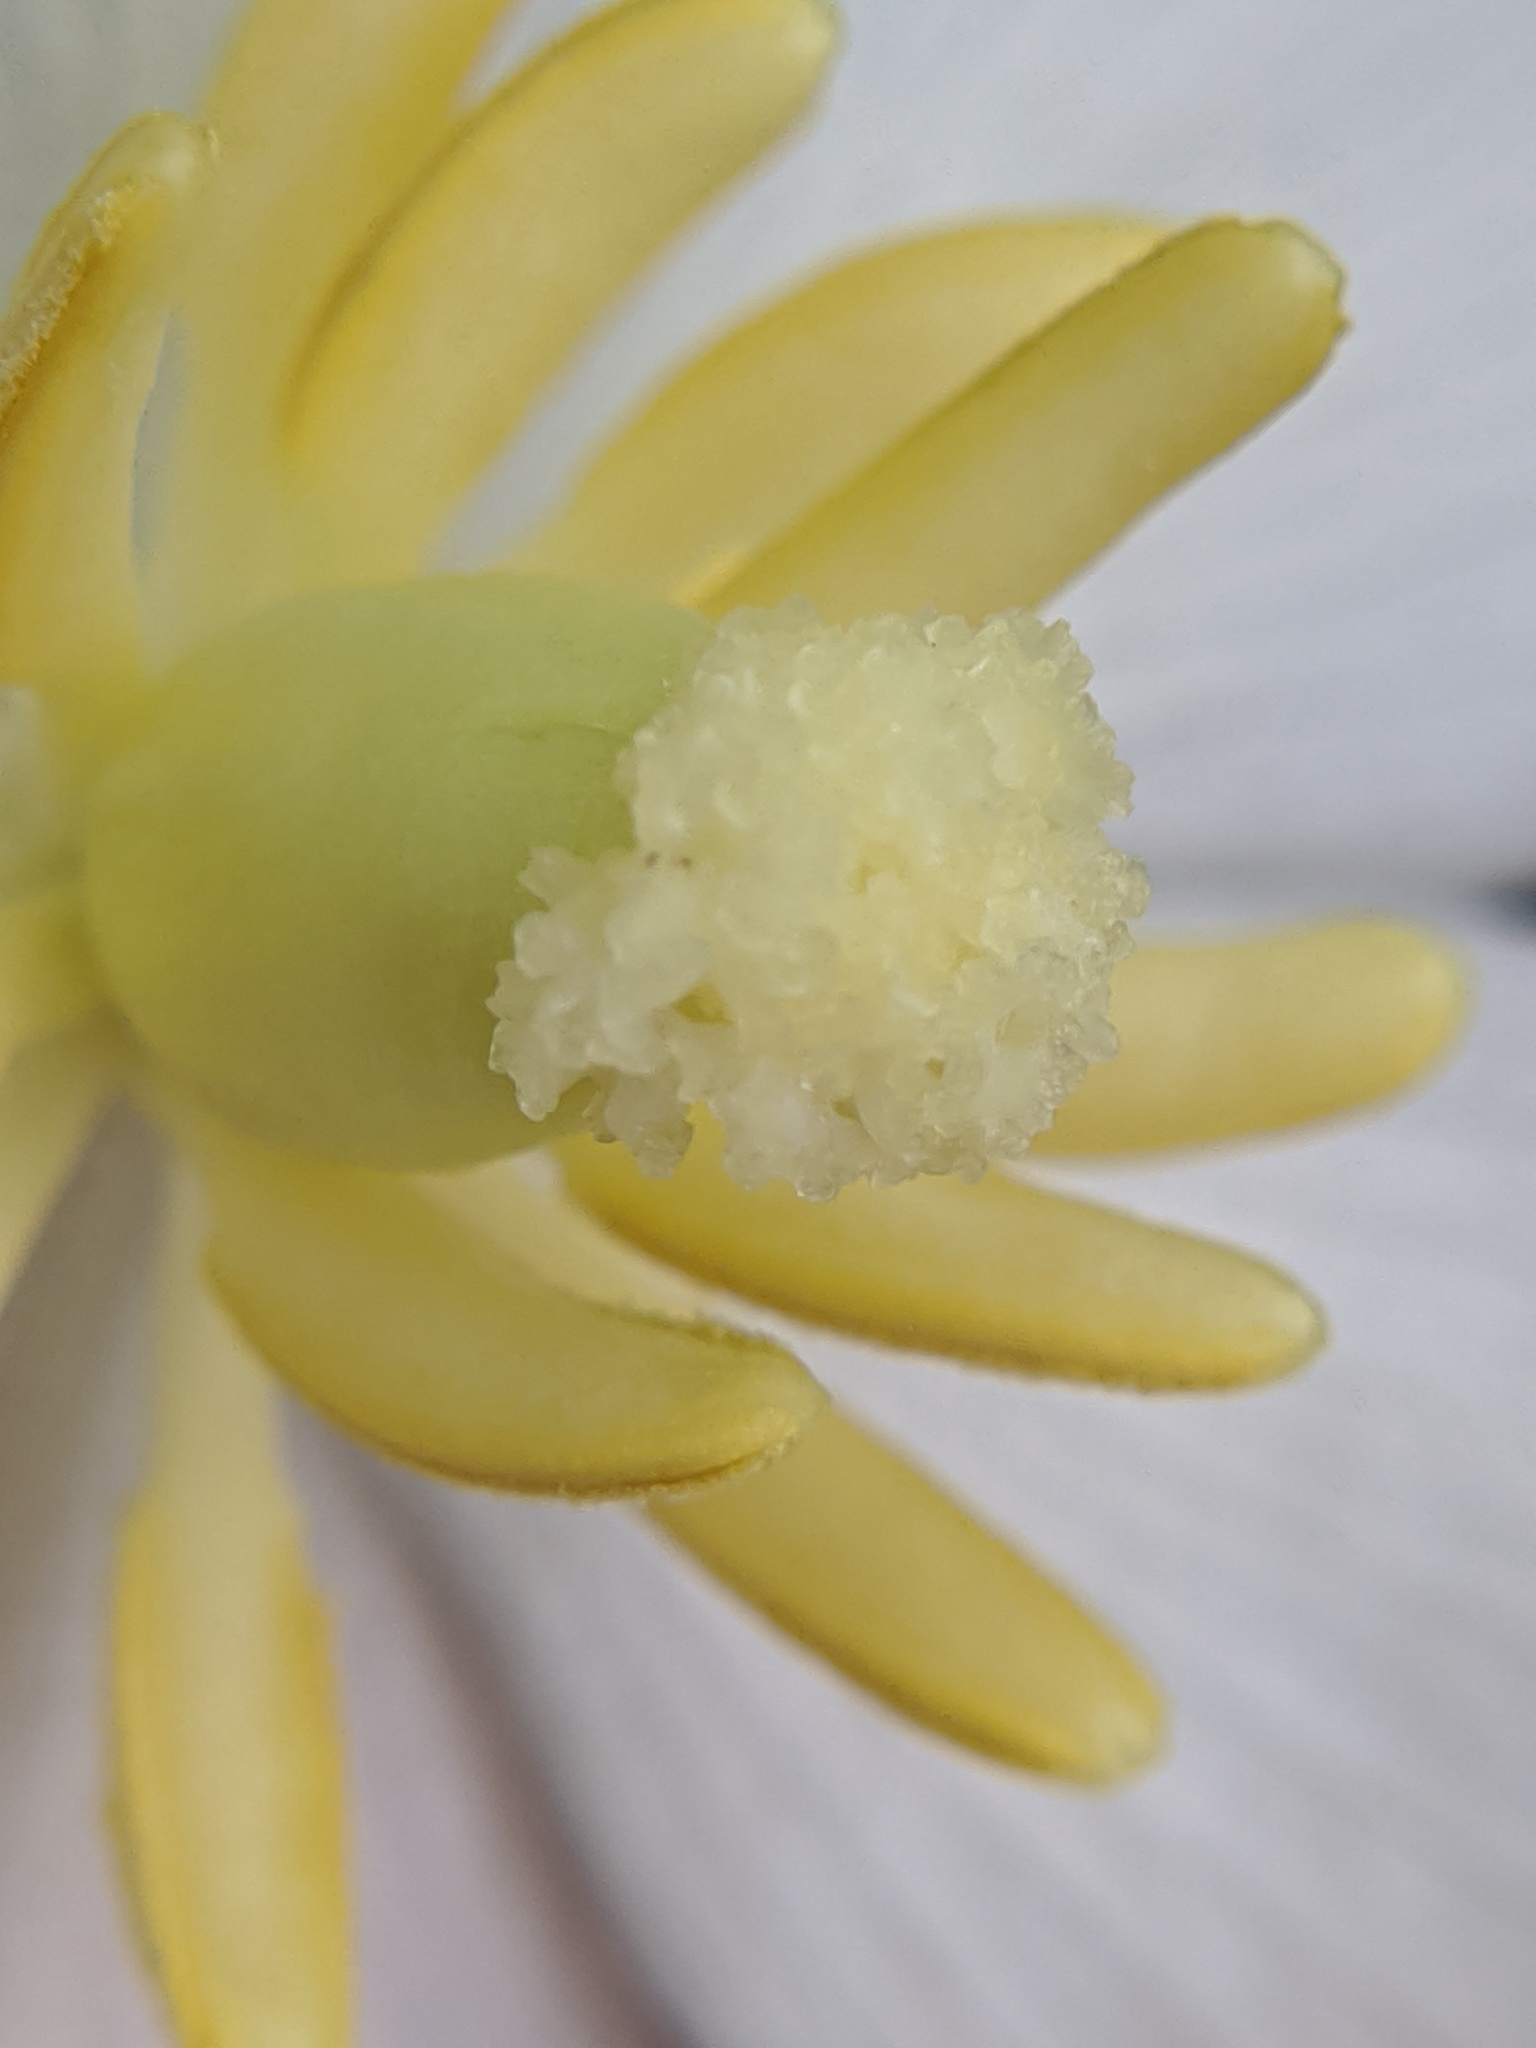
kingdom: Plantae
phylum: Tracheophyta
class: Magnoliopsida
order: Ranunculales
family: Berberidaceae
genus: Podophyllum
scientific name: Podophyllum peltatum
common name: Wild mandrake
